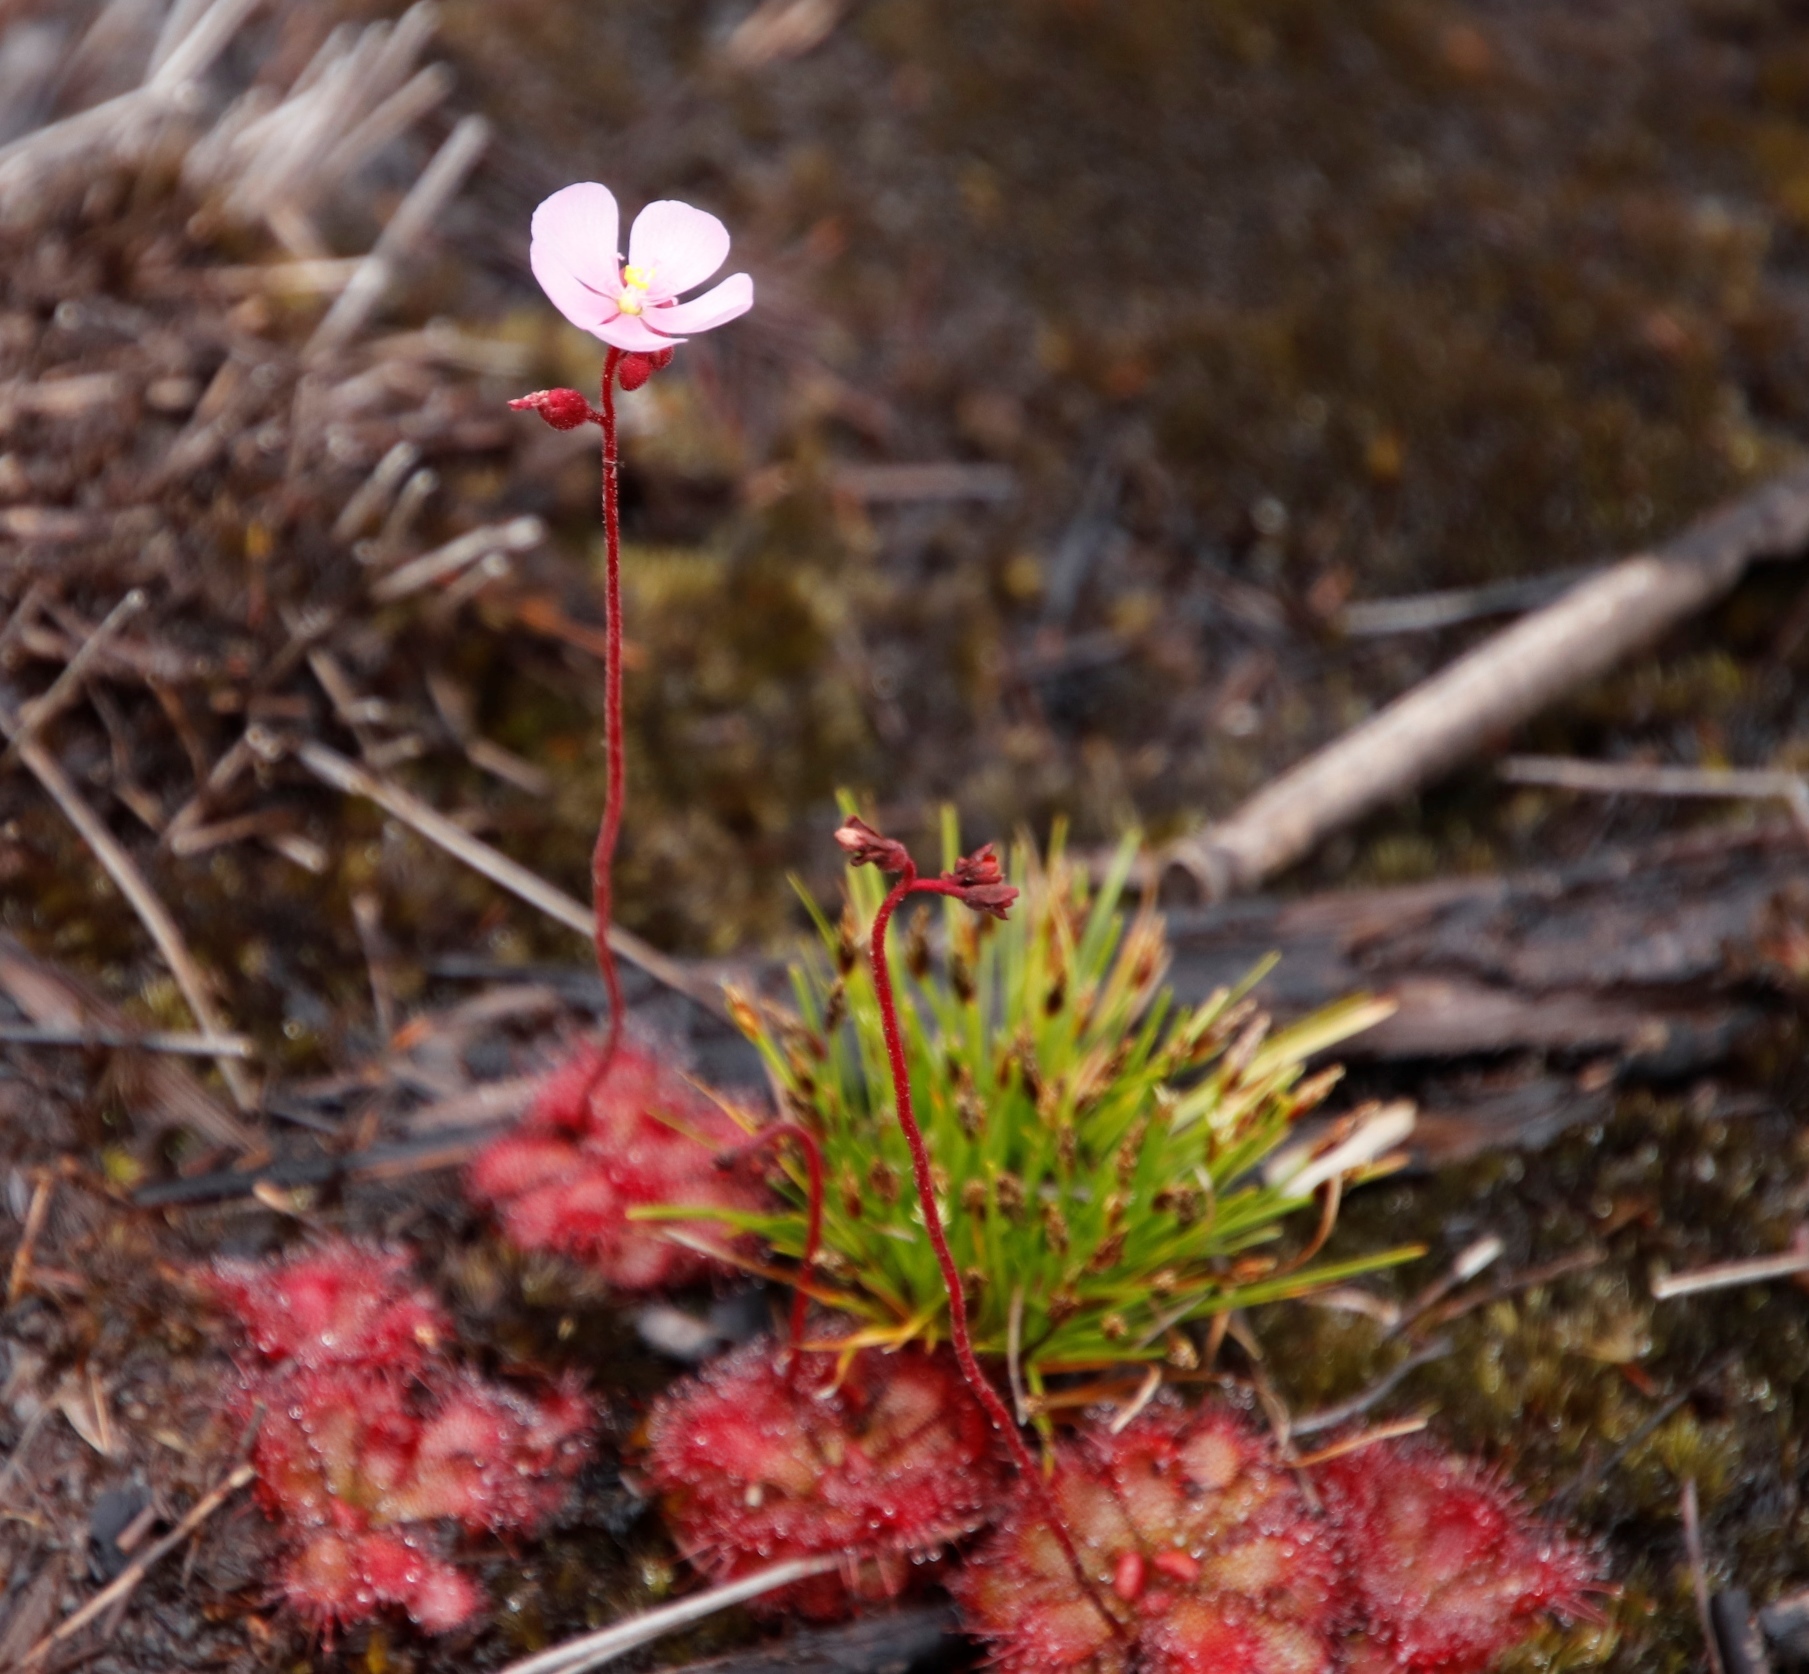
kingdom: Plantae
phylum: Tracheophyta
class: Magnoliopsida
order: Caryophyllales
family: Droseraceae
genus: Drosera
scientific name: Drosera cuneifolia
